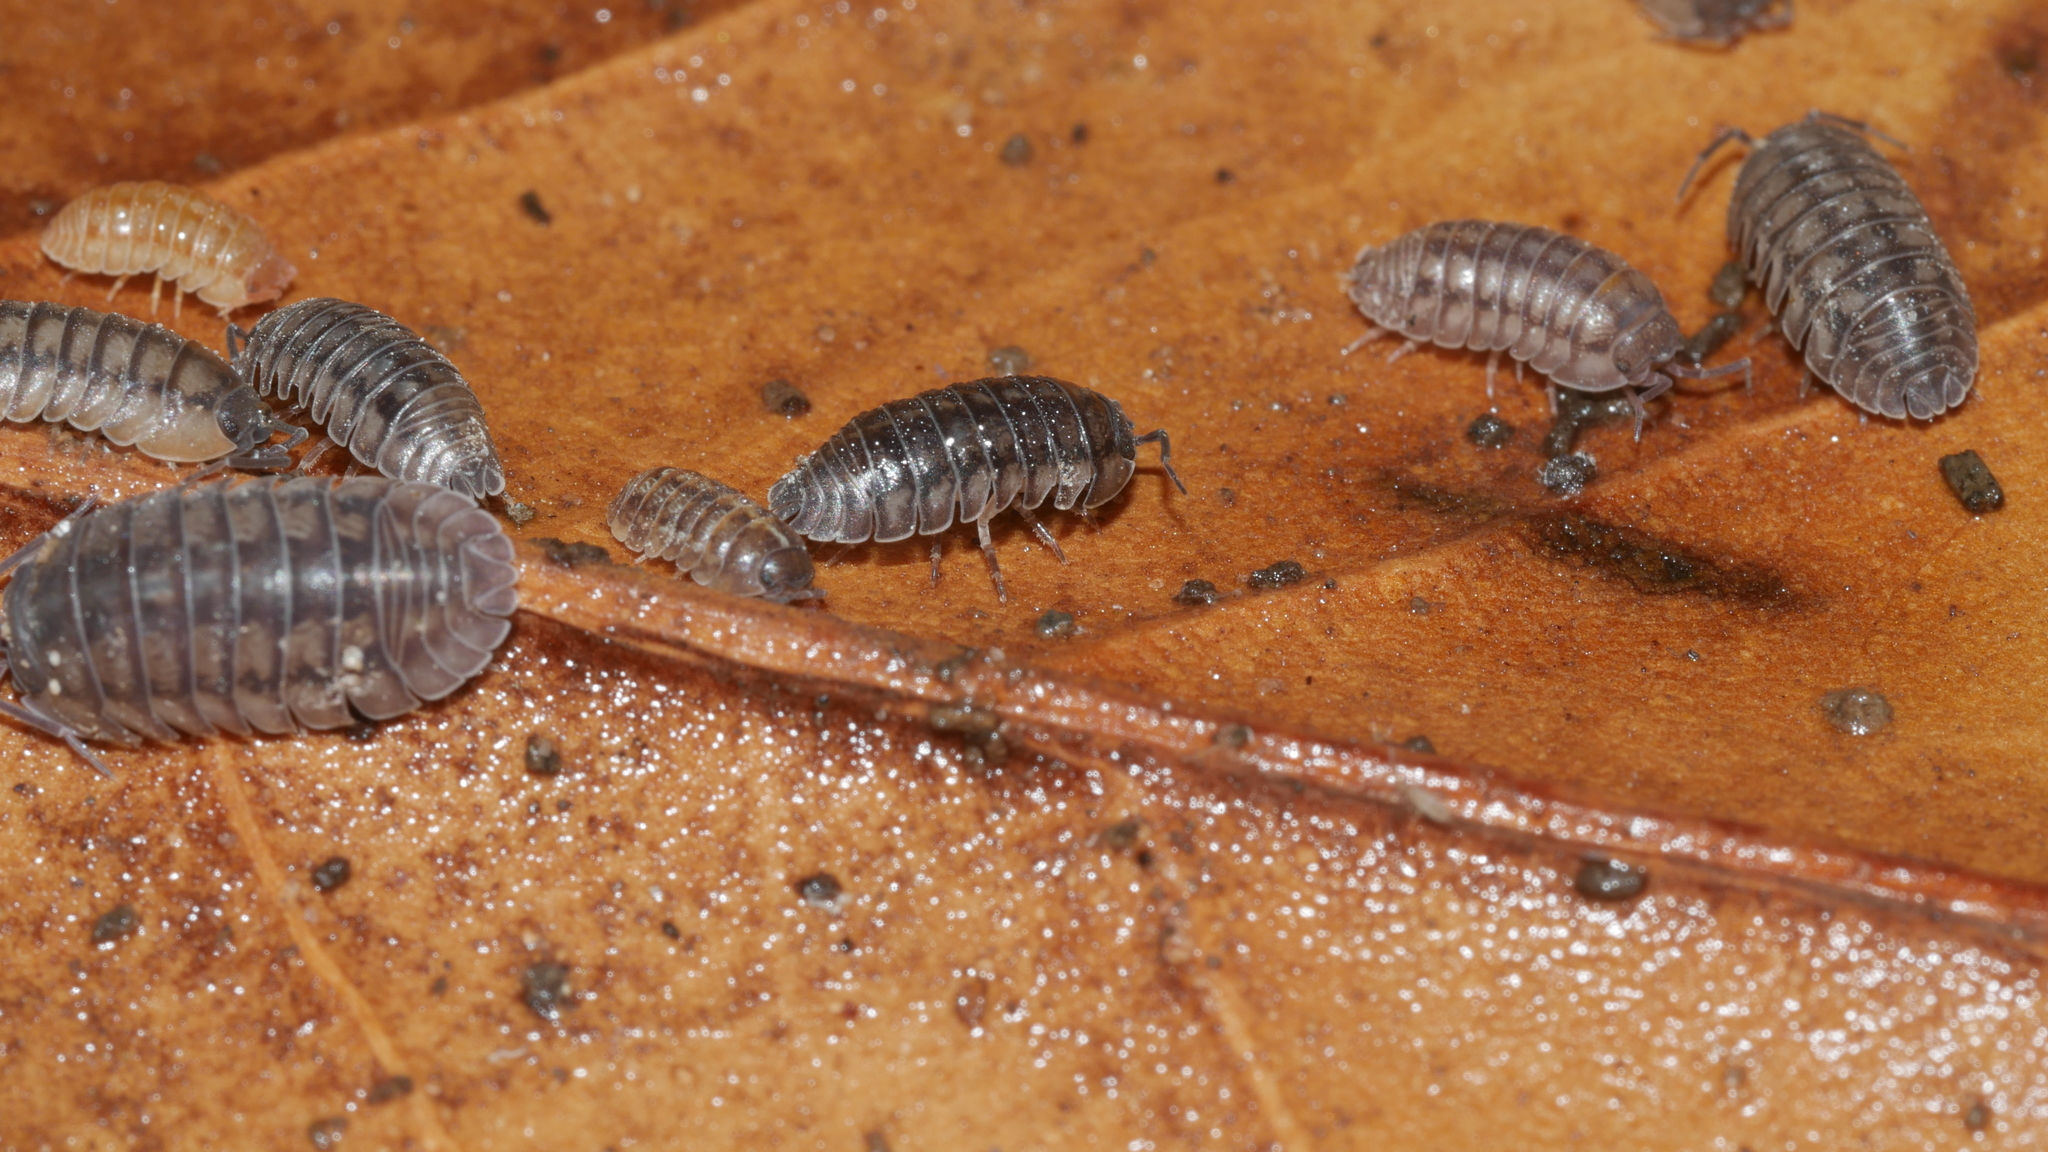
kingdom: Animalia
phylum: Arthropoda
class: Malacostraca
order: Isopoda
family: Armadillidiidae
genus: Armadillidium
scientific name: Armadillidium nasatum
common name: Isopod
